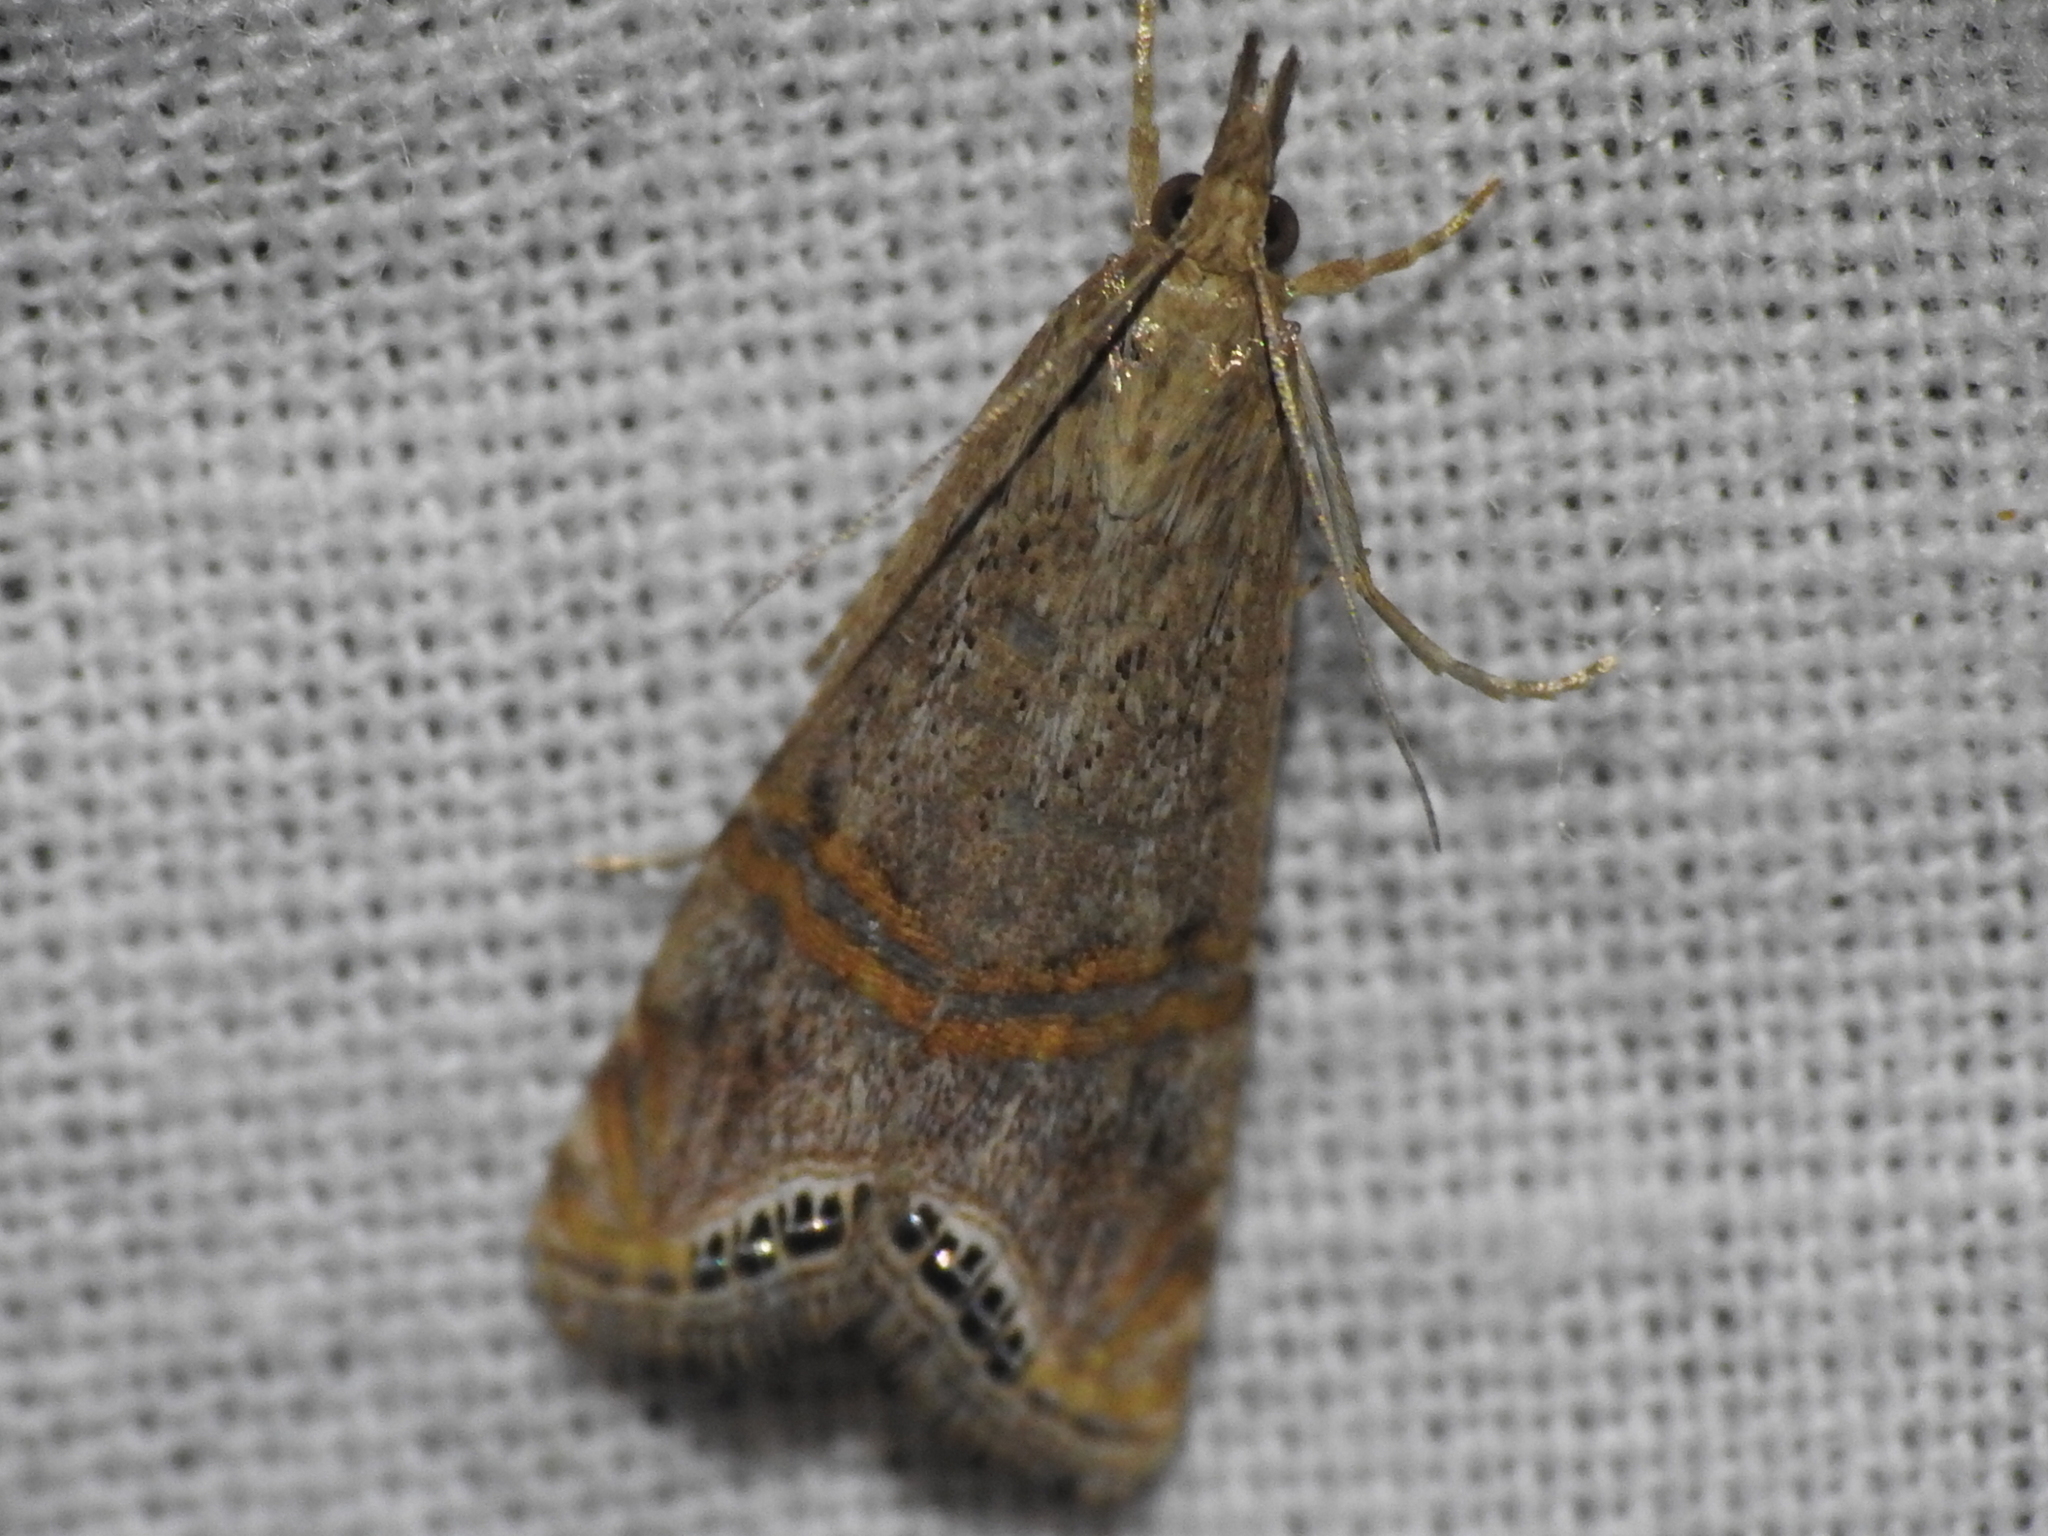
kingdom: Animalia
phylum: Arthropoda
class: Insecta
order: Lepidoptera
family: Crambidae
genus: Euchromius
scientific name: Euchromius ocellea
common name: Necklace veneer moth
